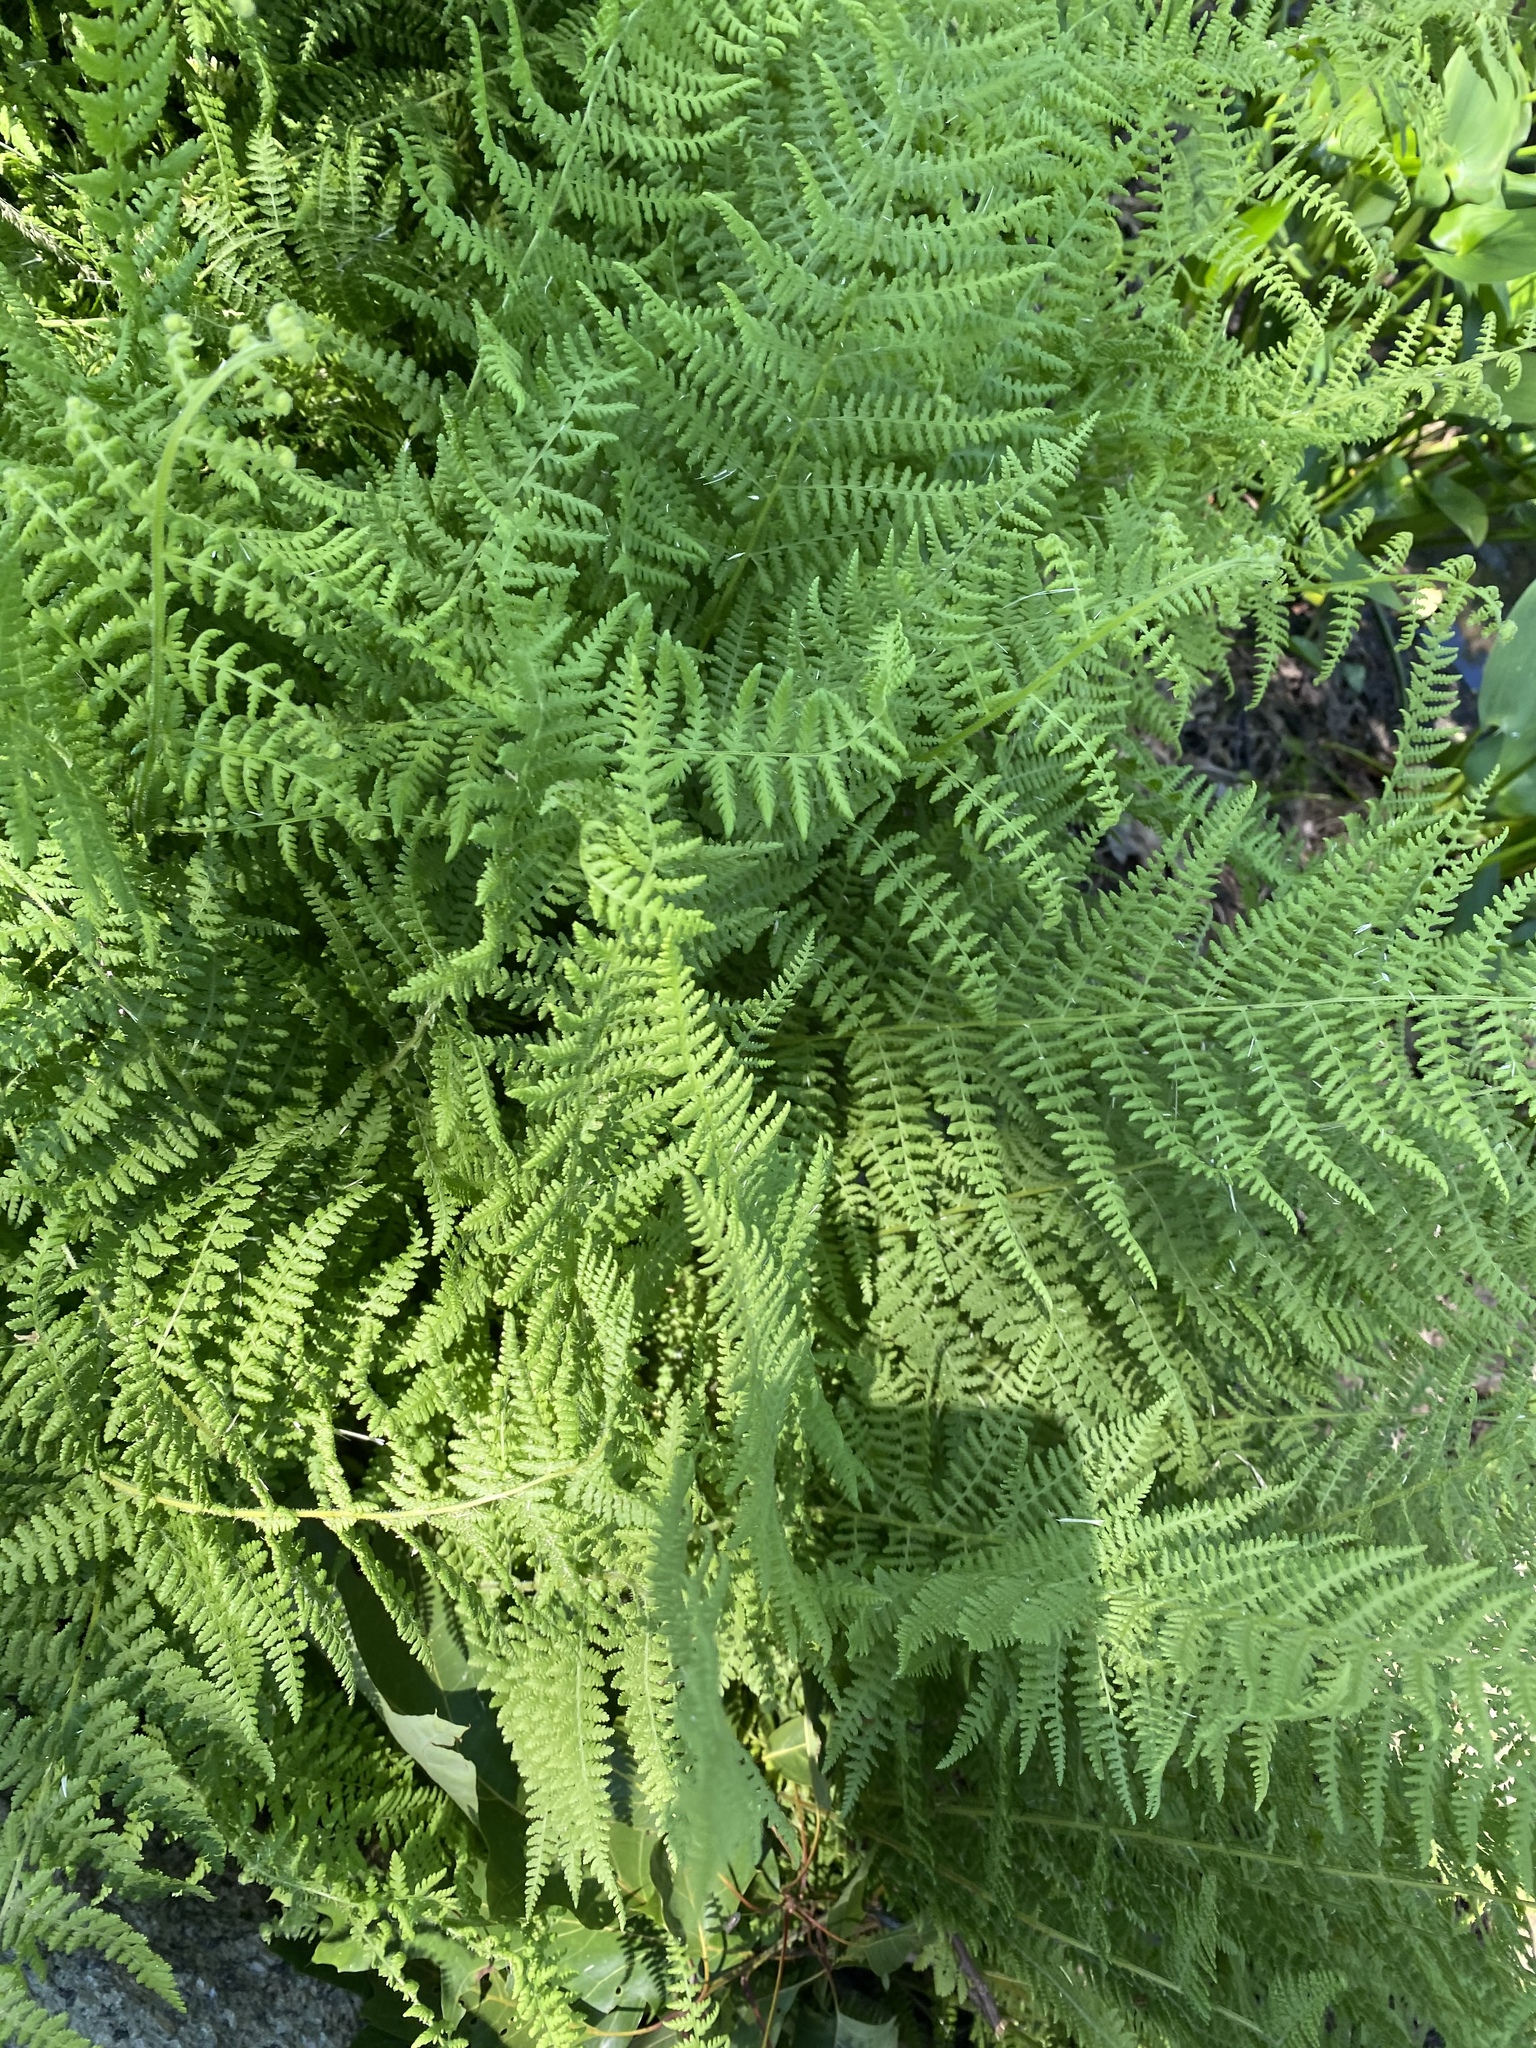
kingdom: Plantae
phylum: Tracheophyta
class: Polypodiopsida
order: Polypodiales
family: Dennstaedtiaceae
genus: Sitobolium
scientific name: Sitobolium punctilobum
